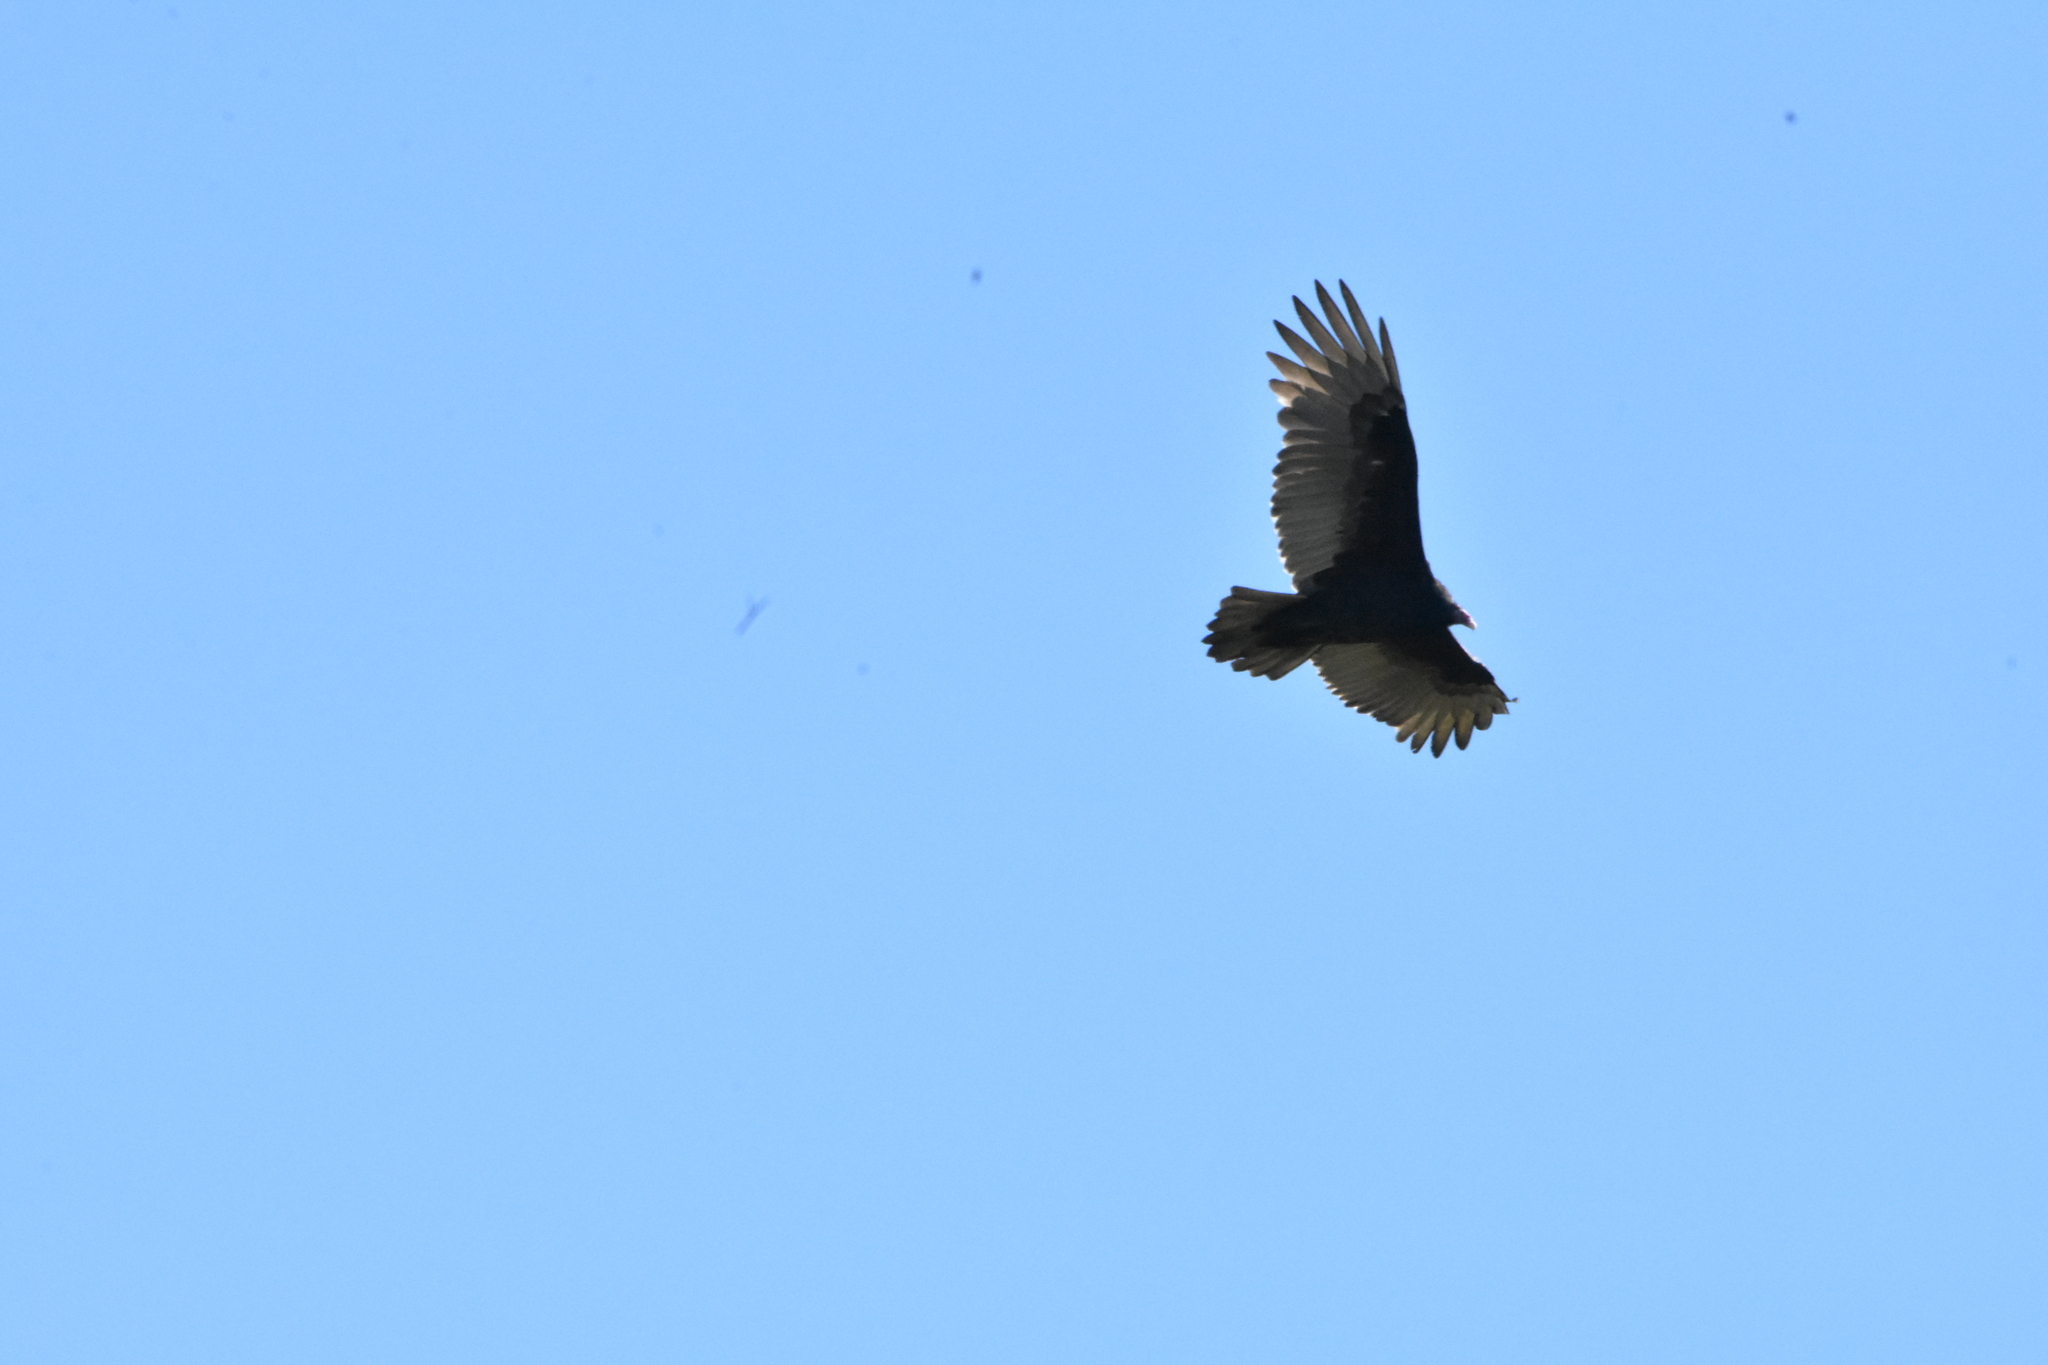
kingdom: Animalia
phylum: Chordata
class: Aves
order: Accipitriformes
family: Cathartidae
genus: Cathartes
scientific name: Cathartes aura
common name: Turkey vulture
